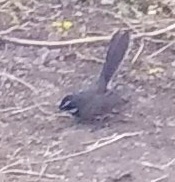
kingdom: Animalia
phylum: Chordata
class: Aves
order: Passeriformes
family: Rhipiduridae
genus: Rhipidura
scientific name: Rhipidura albogularis
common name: White-spotted fantail
